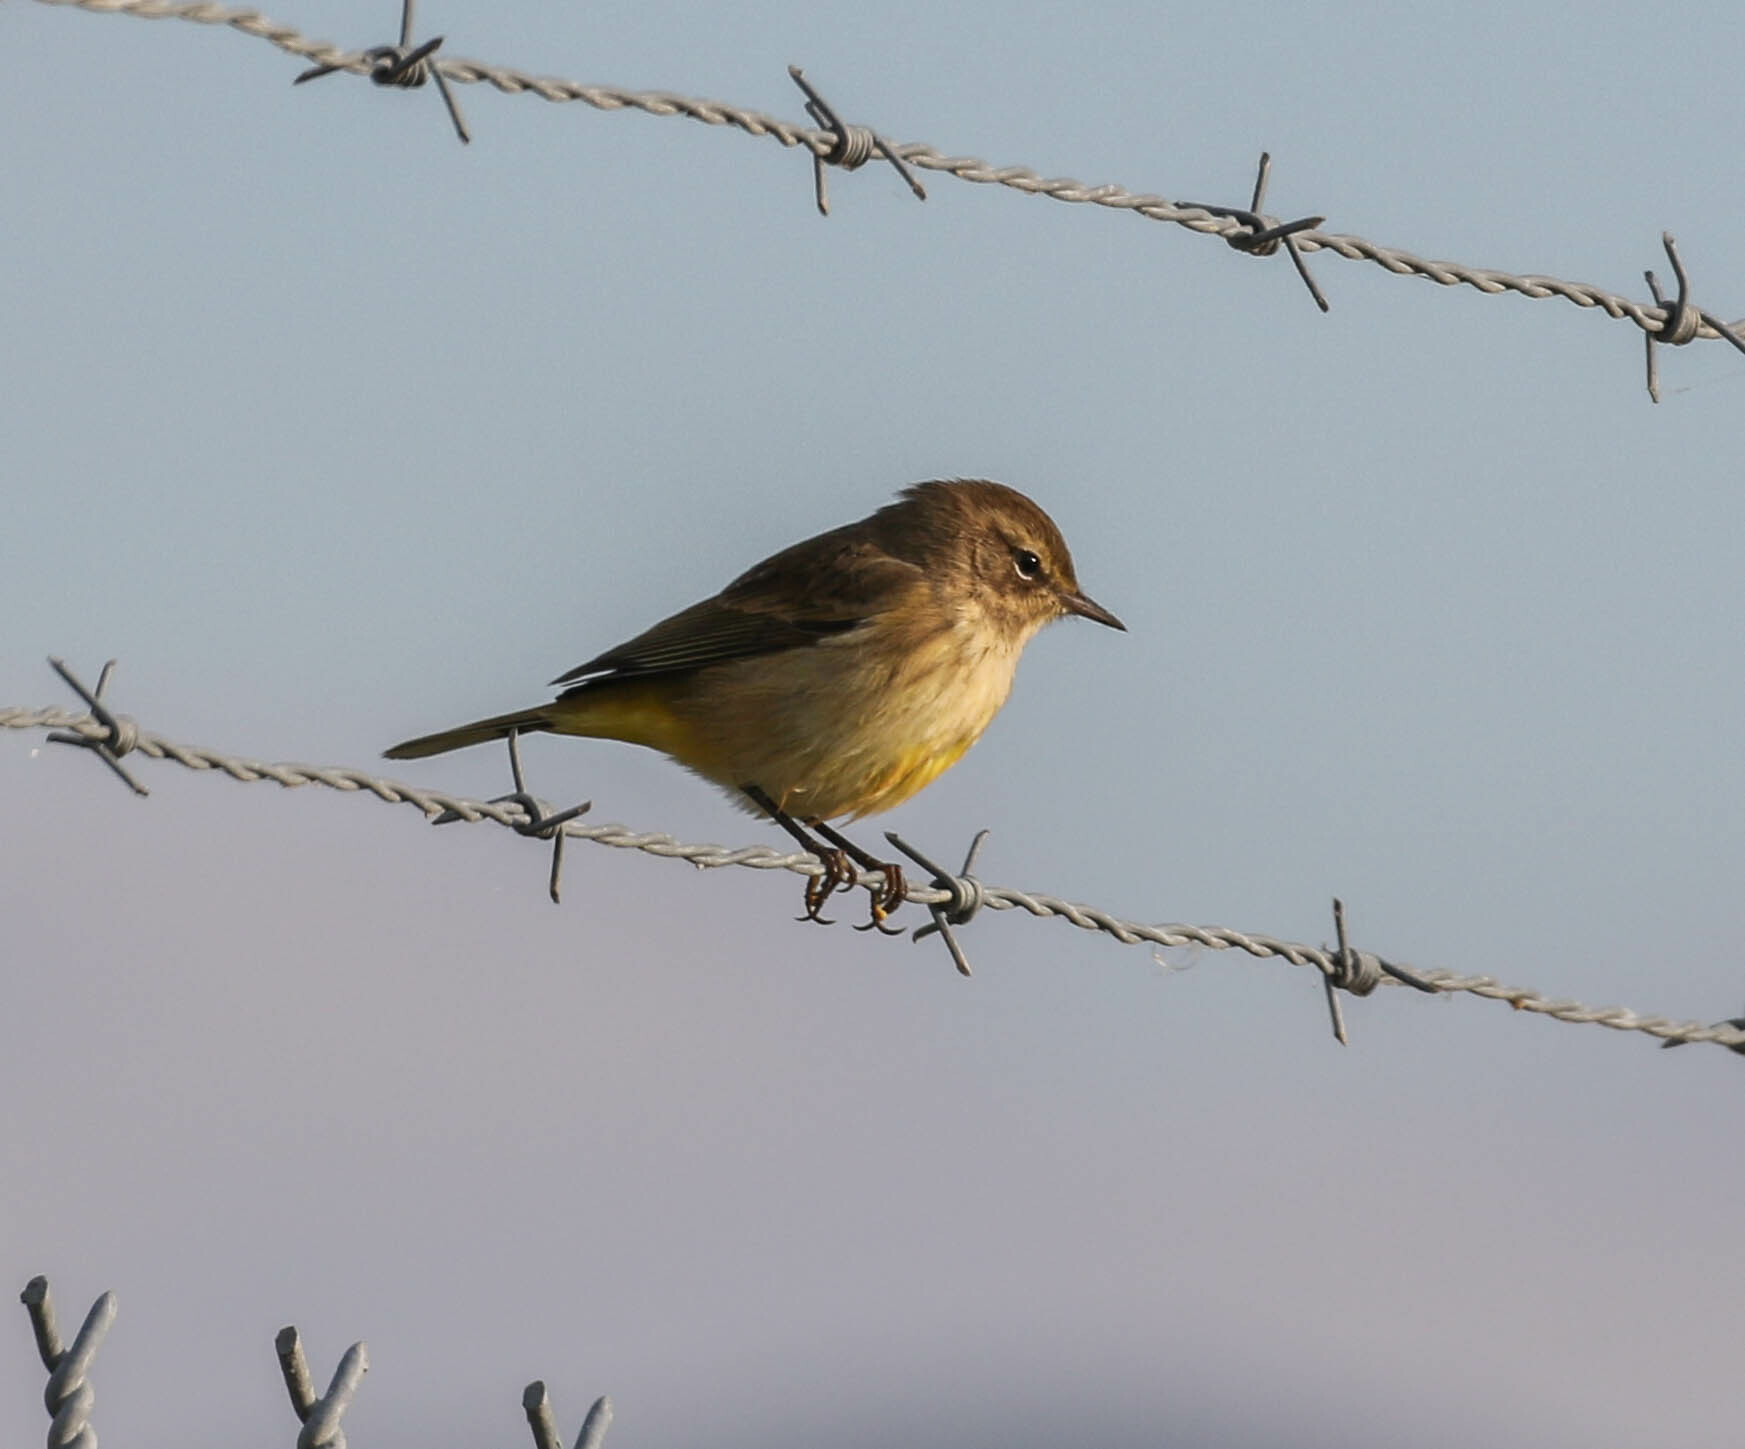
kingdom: Animalia
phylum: Chordata
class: Aves
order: Passeriformes
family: Parulidae
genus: Setophaga
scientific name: Setophaga palmarum
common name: Palm warbler
